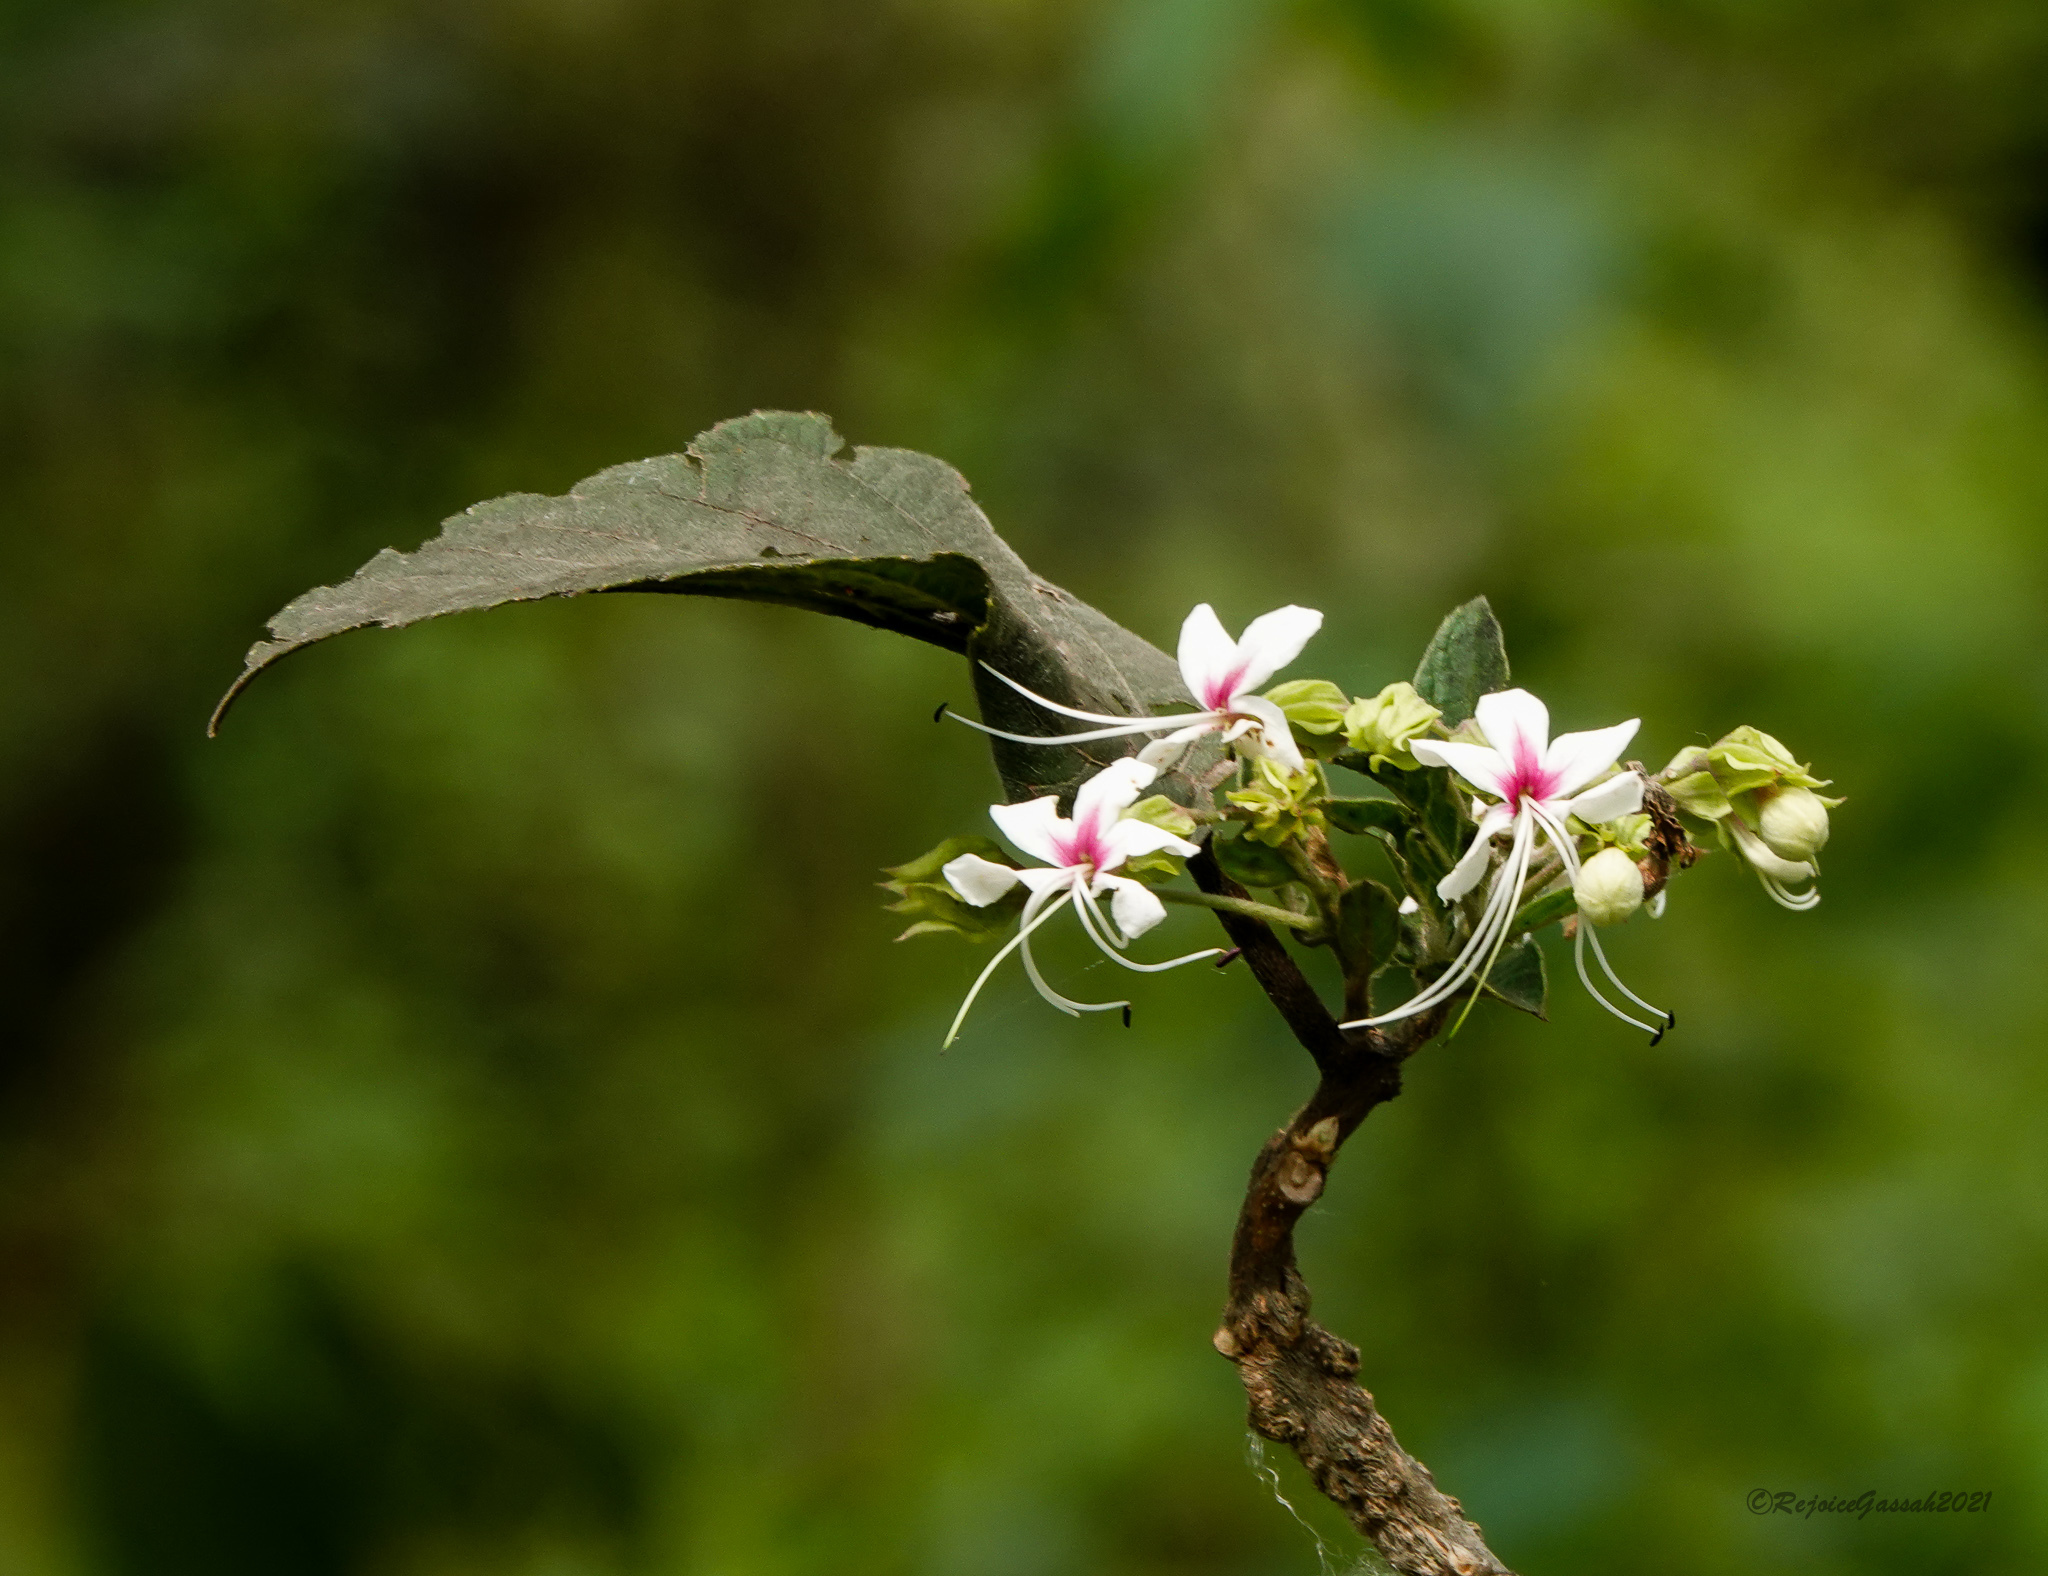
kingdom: Plantae
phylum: Tracheophyta
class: Magnoliopsida
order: Lamiales
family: Lamiaceae
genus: Clerodendrum
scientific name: Clerodendrum infortunatum
